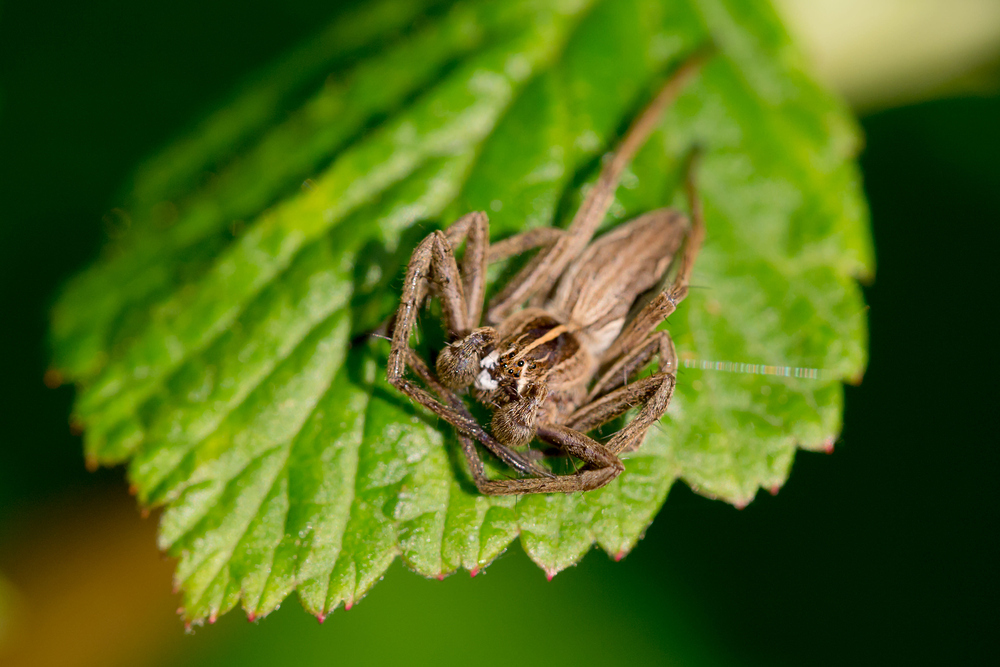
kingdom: Animalia
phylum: Arthropoda
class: Arachnida
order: Araneae
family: Pisauridae
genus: Pisaura
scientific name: Pisaura mirabilis
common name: Tent spider
